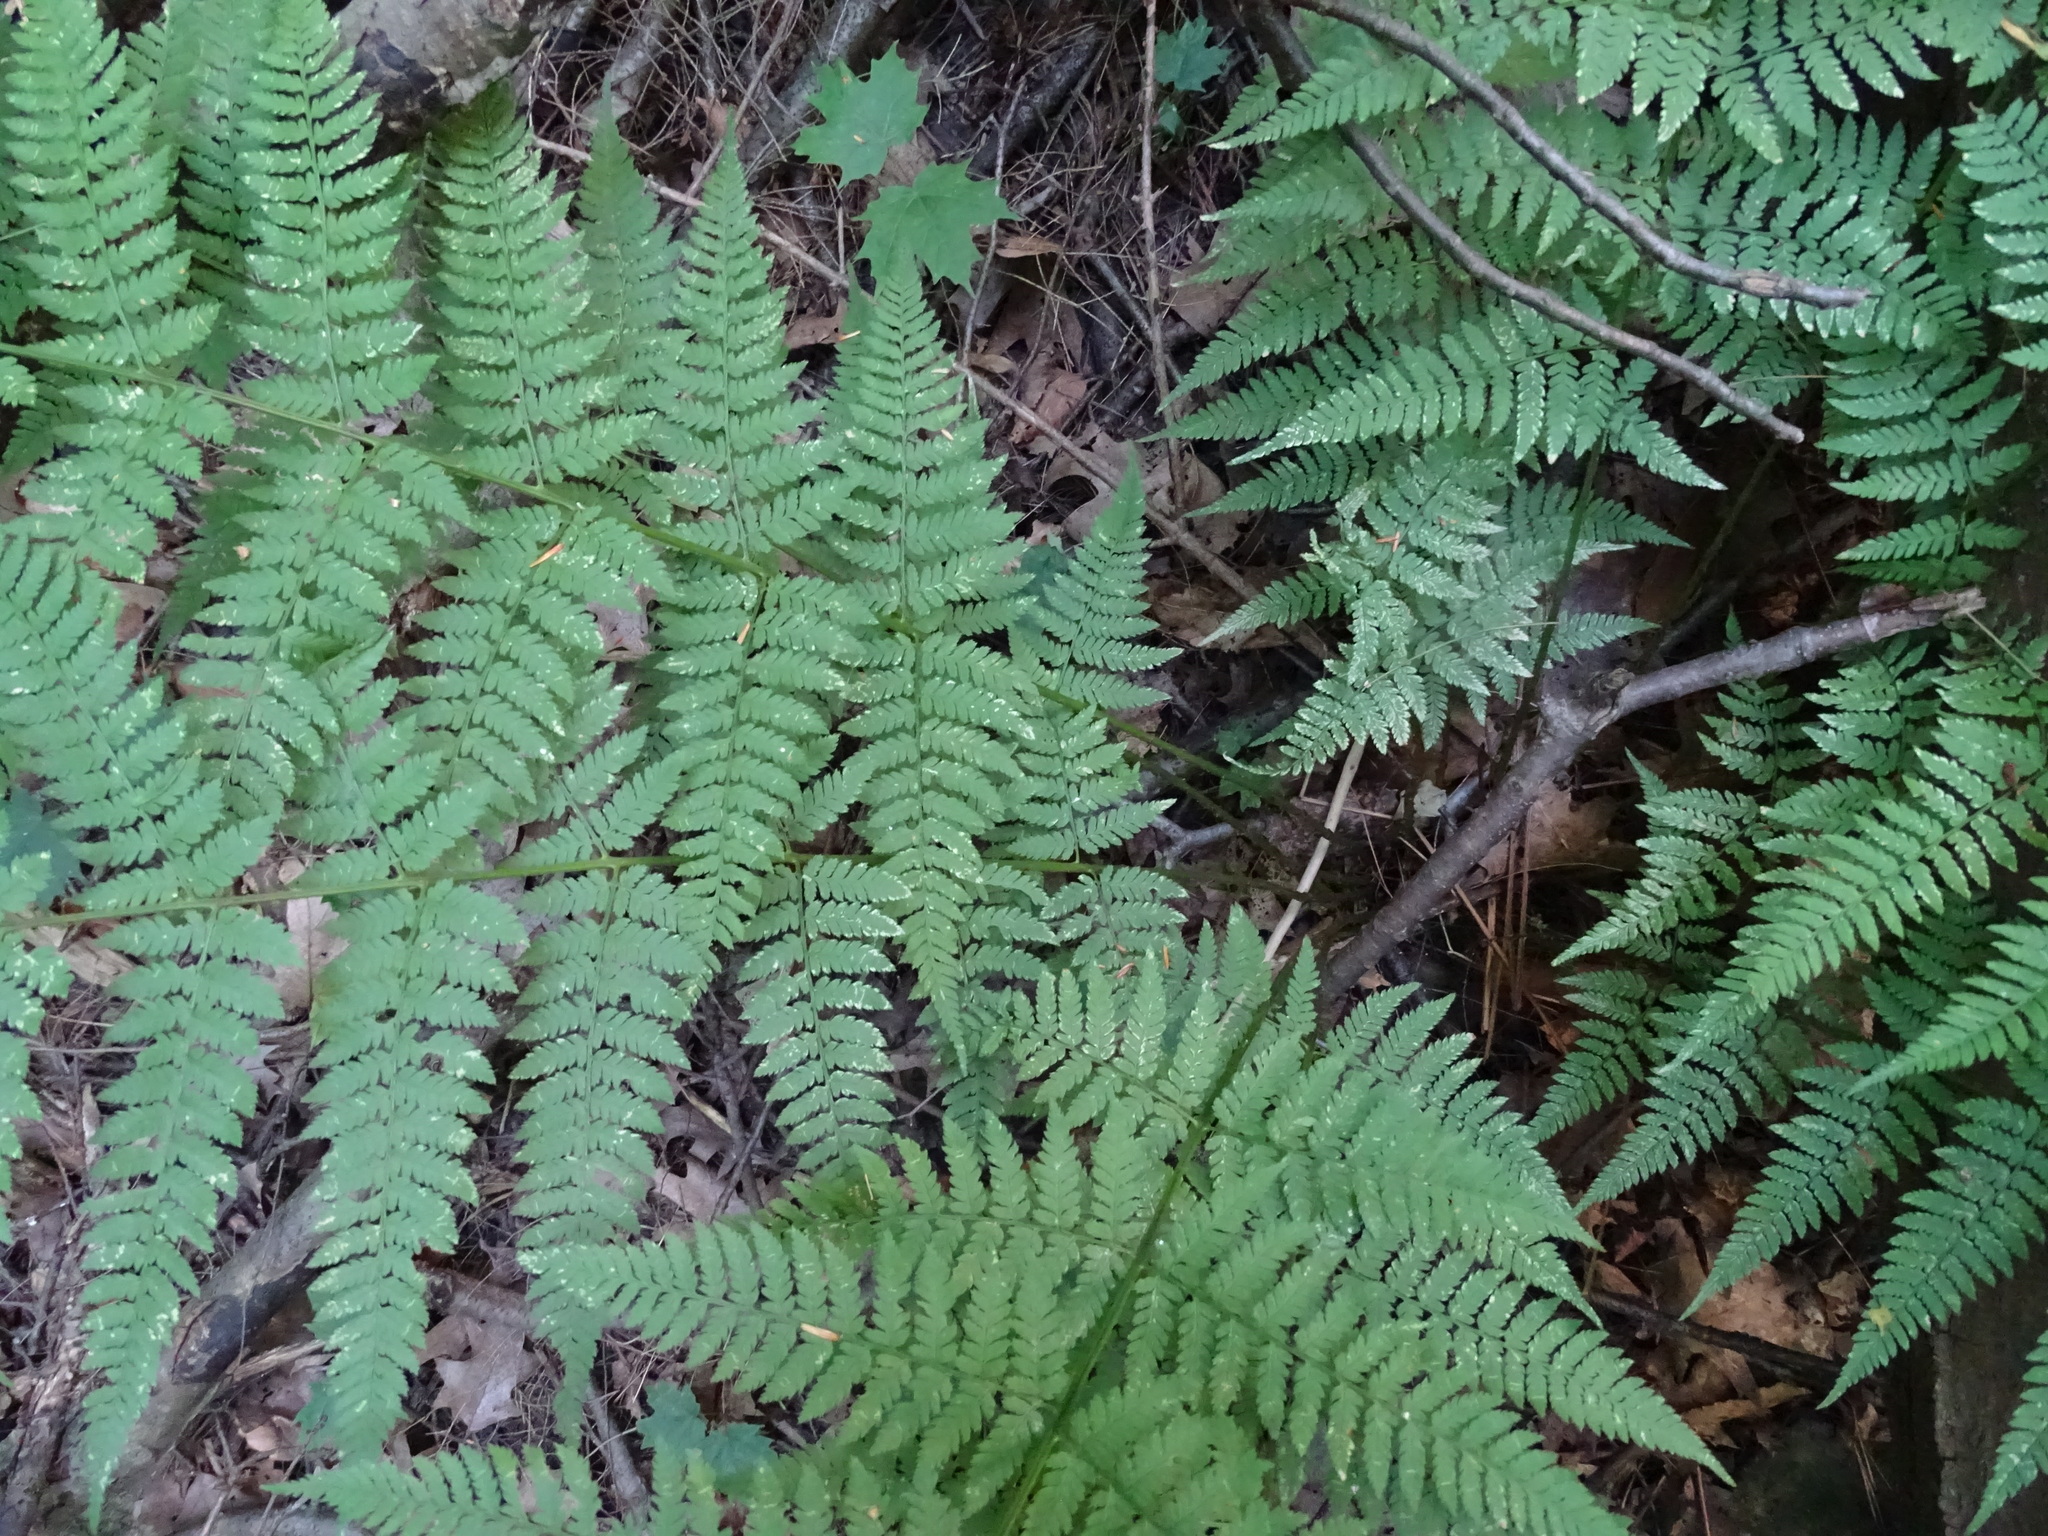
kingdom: Plantae
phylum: Tracheophyta
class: Polypodiopsida
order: Polypodiales
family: Dryopteridaceae
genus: Dryopteris
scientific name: Dryopteris carthusiana
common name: Narrow buckler-fern
